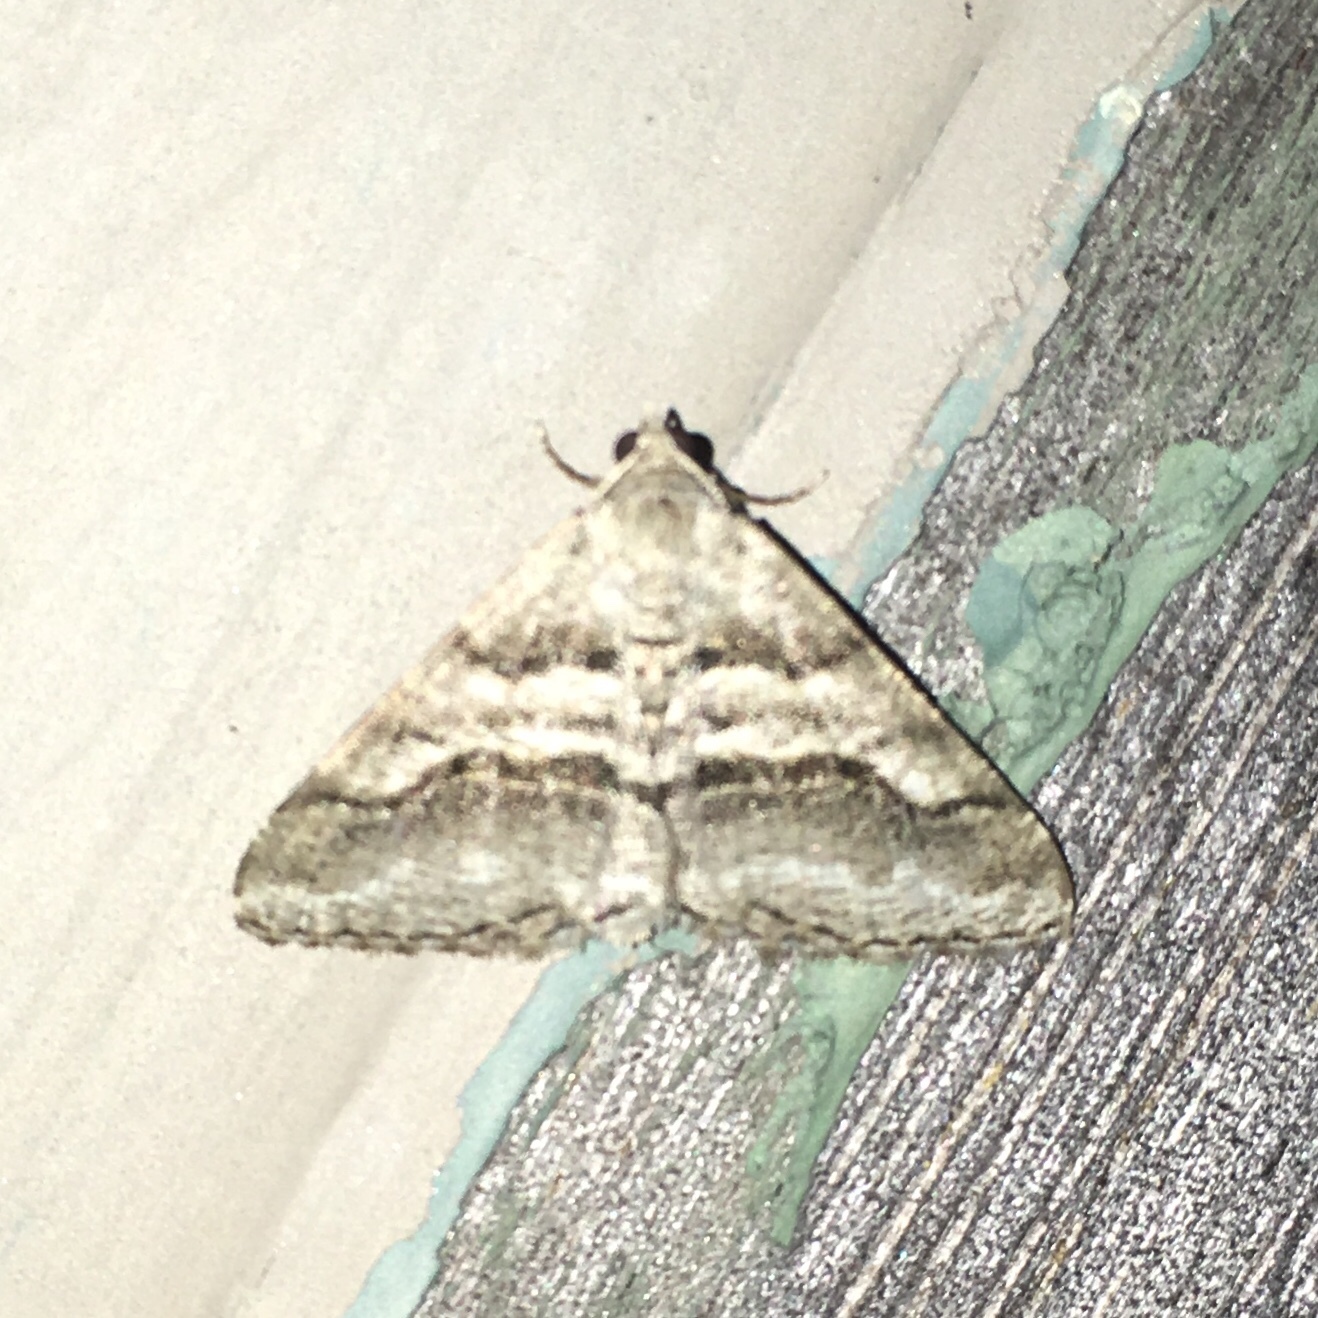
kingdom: Animalia
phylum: Arthropoda
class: Insecta
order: Lepidoptera
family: Geometridae
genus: Digrammia
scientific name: Digrammia continuata
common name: Curve-lined angle
